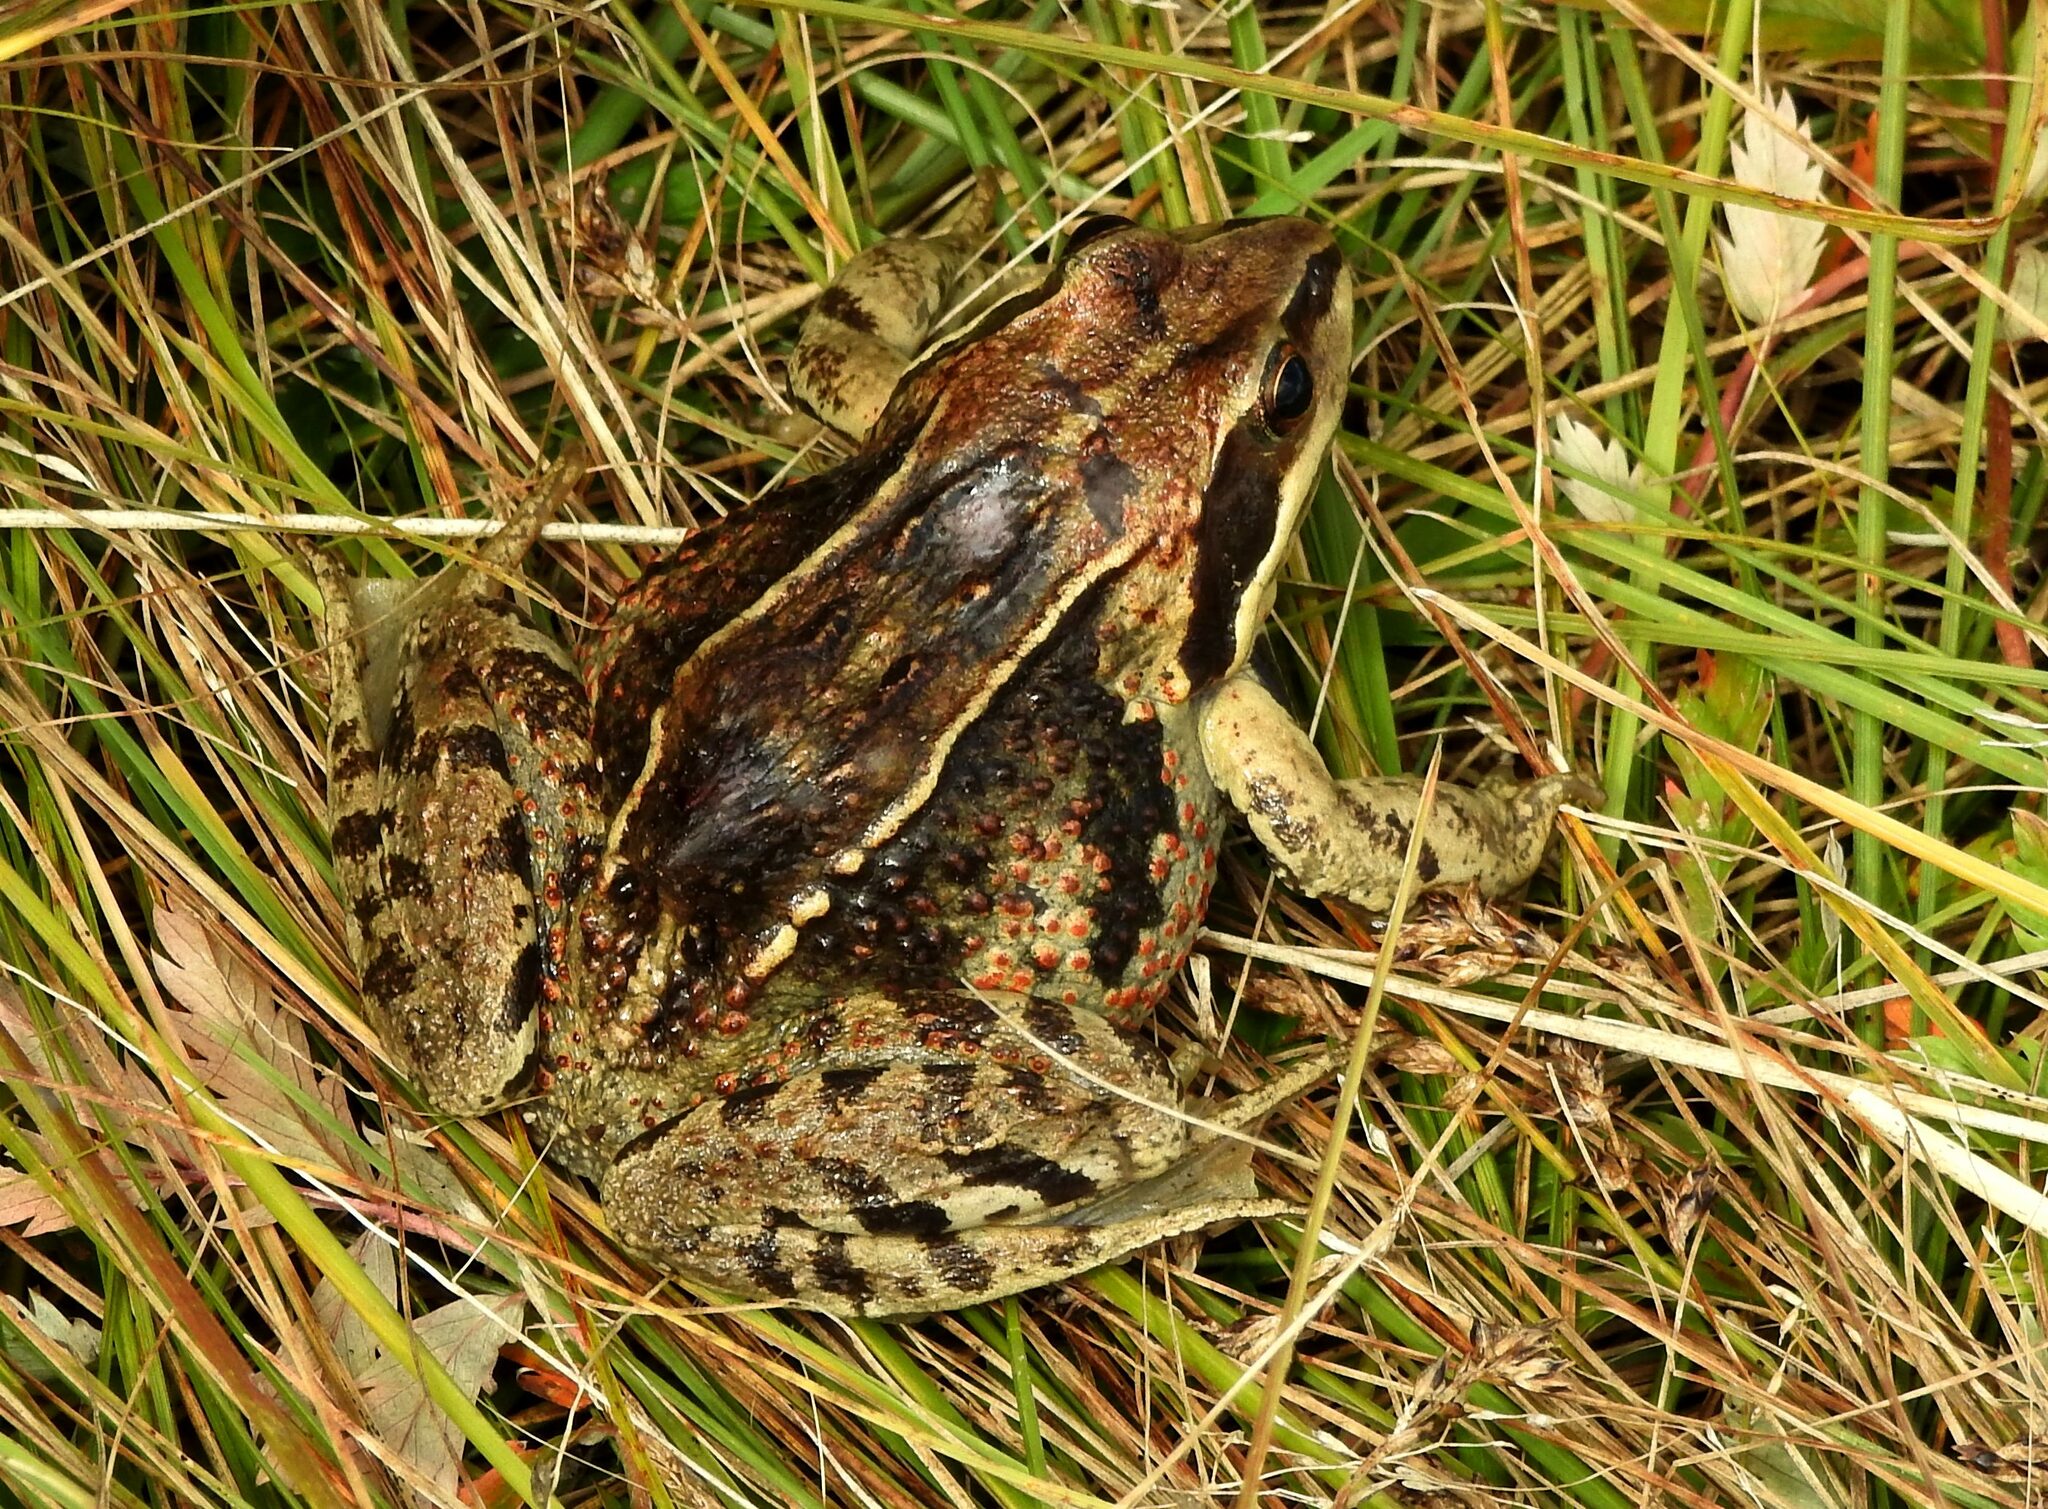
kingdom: Animalia
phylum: Chordata
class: Amphibia
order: Anura
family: Ranidae
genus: Rana
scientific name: Rana amurensis
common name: Amur brown frog
